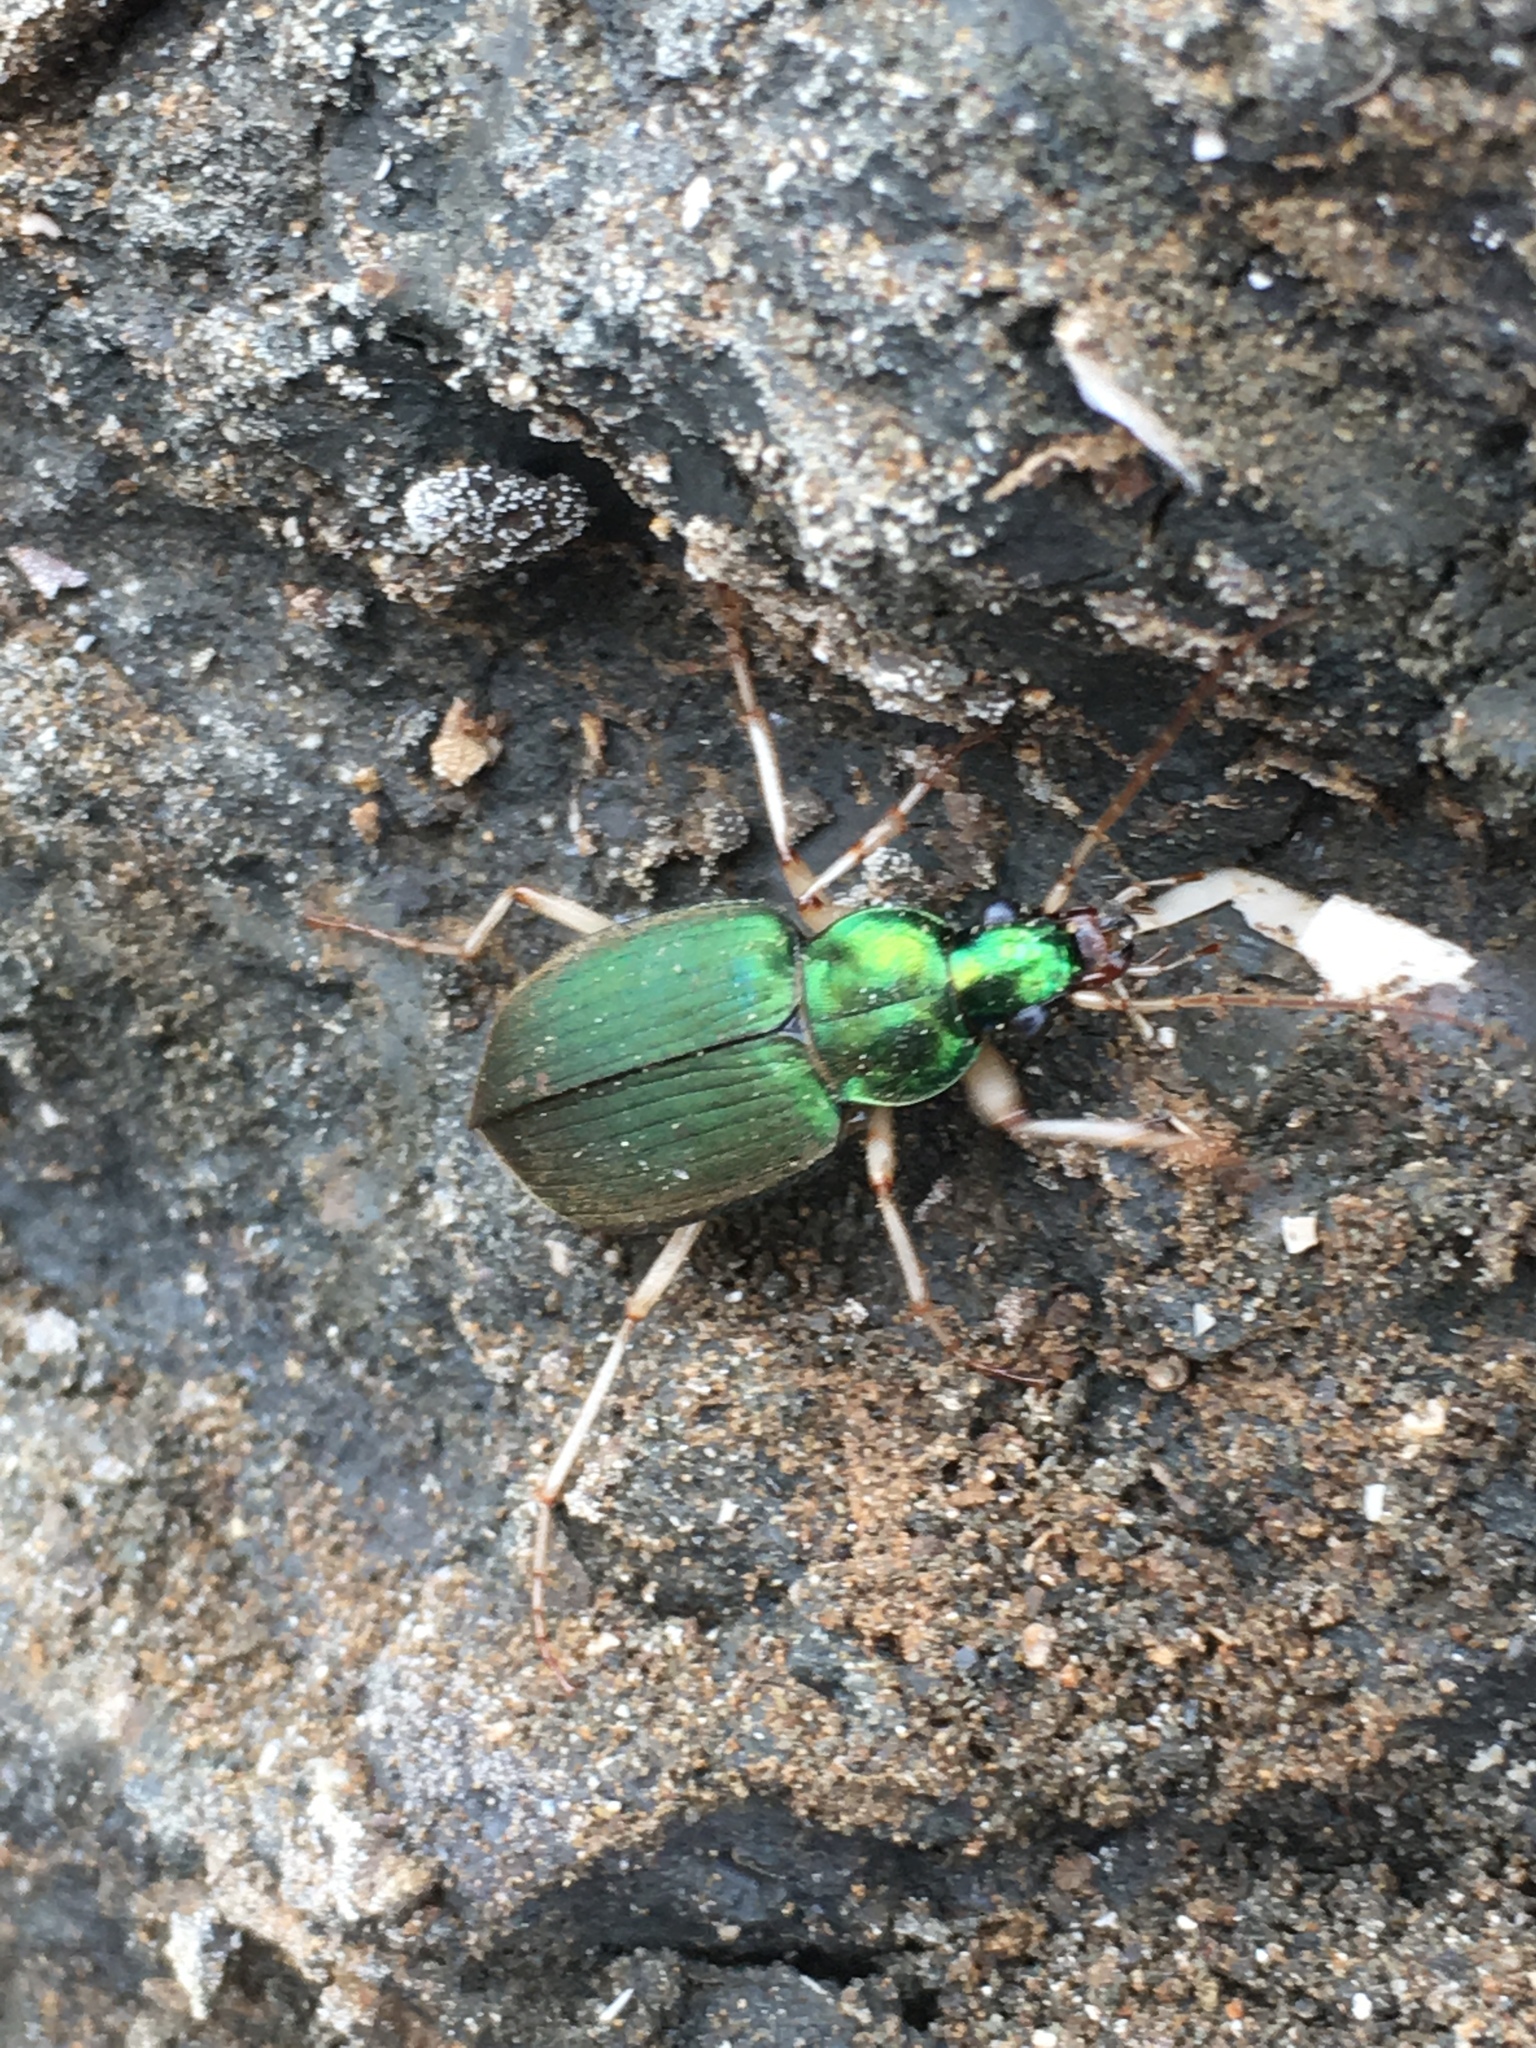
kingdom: Animalia
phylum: Arthropoda
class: Insecta
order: Coleoptera
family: Carabidae
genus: Chlaenius
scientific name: Chlaenius prasinus
